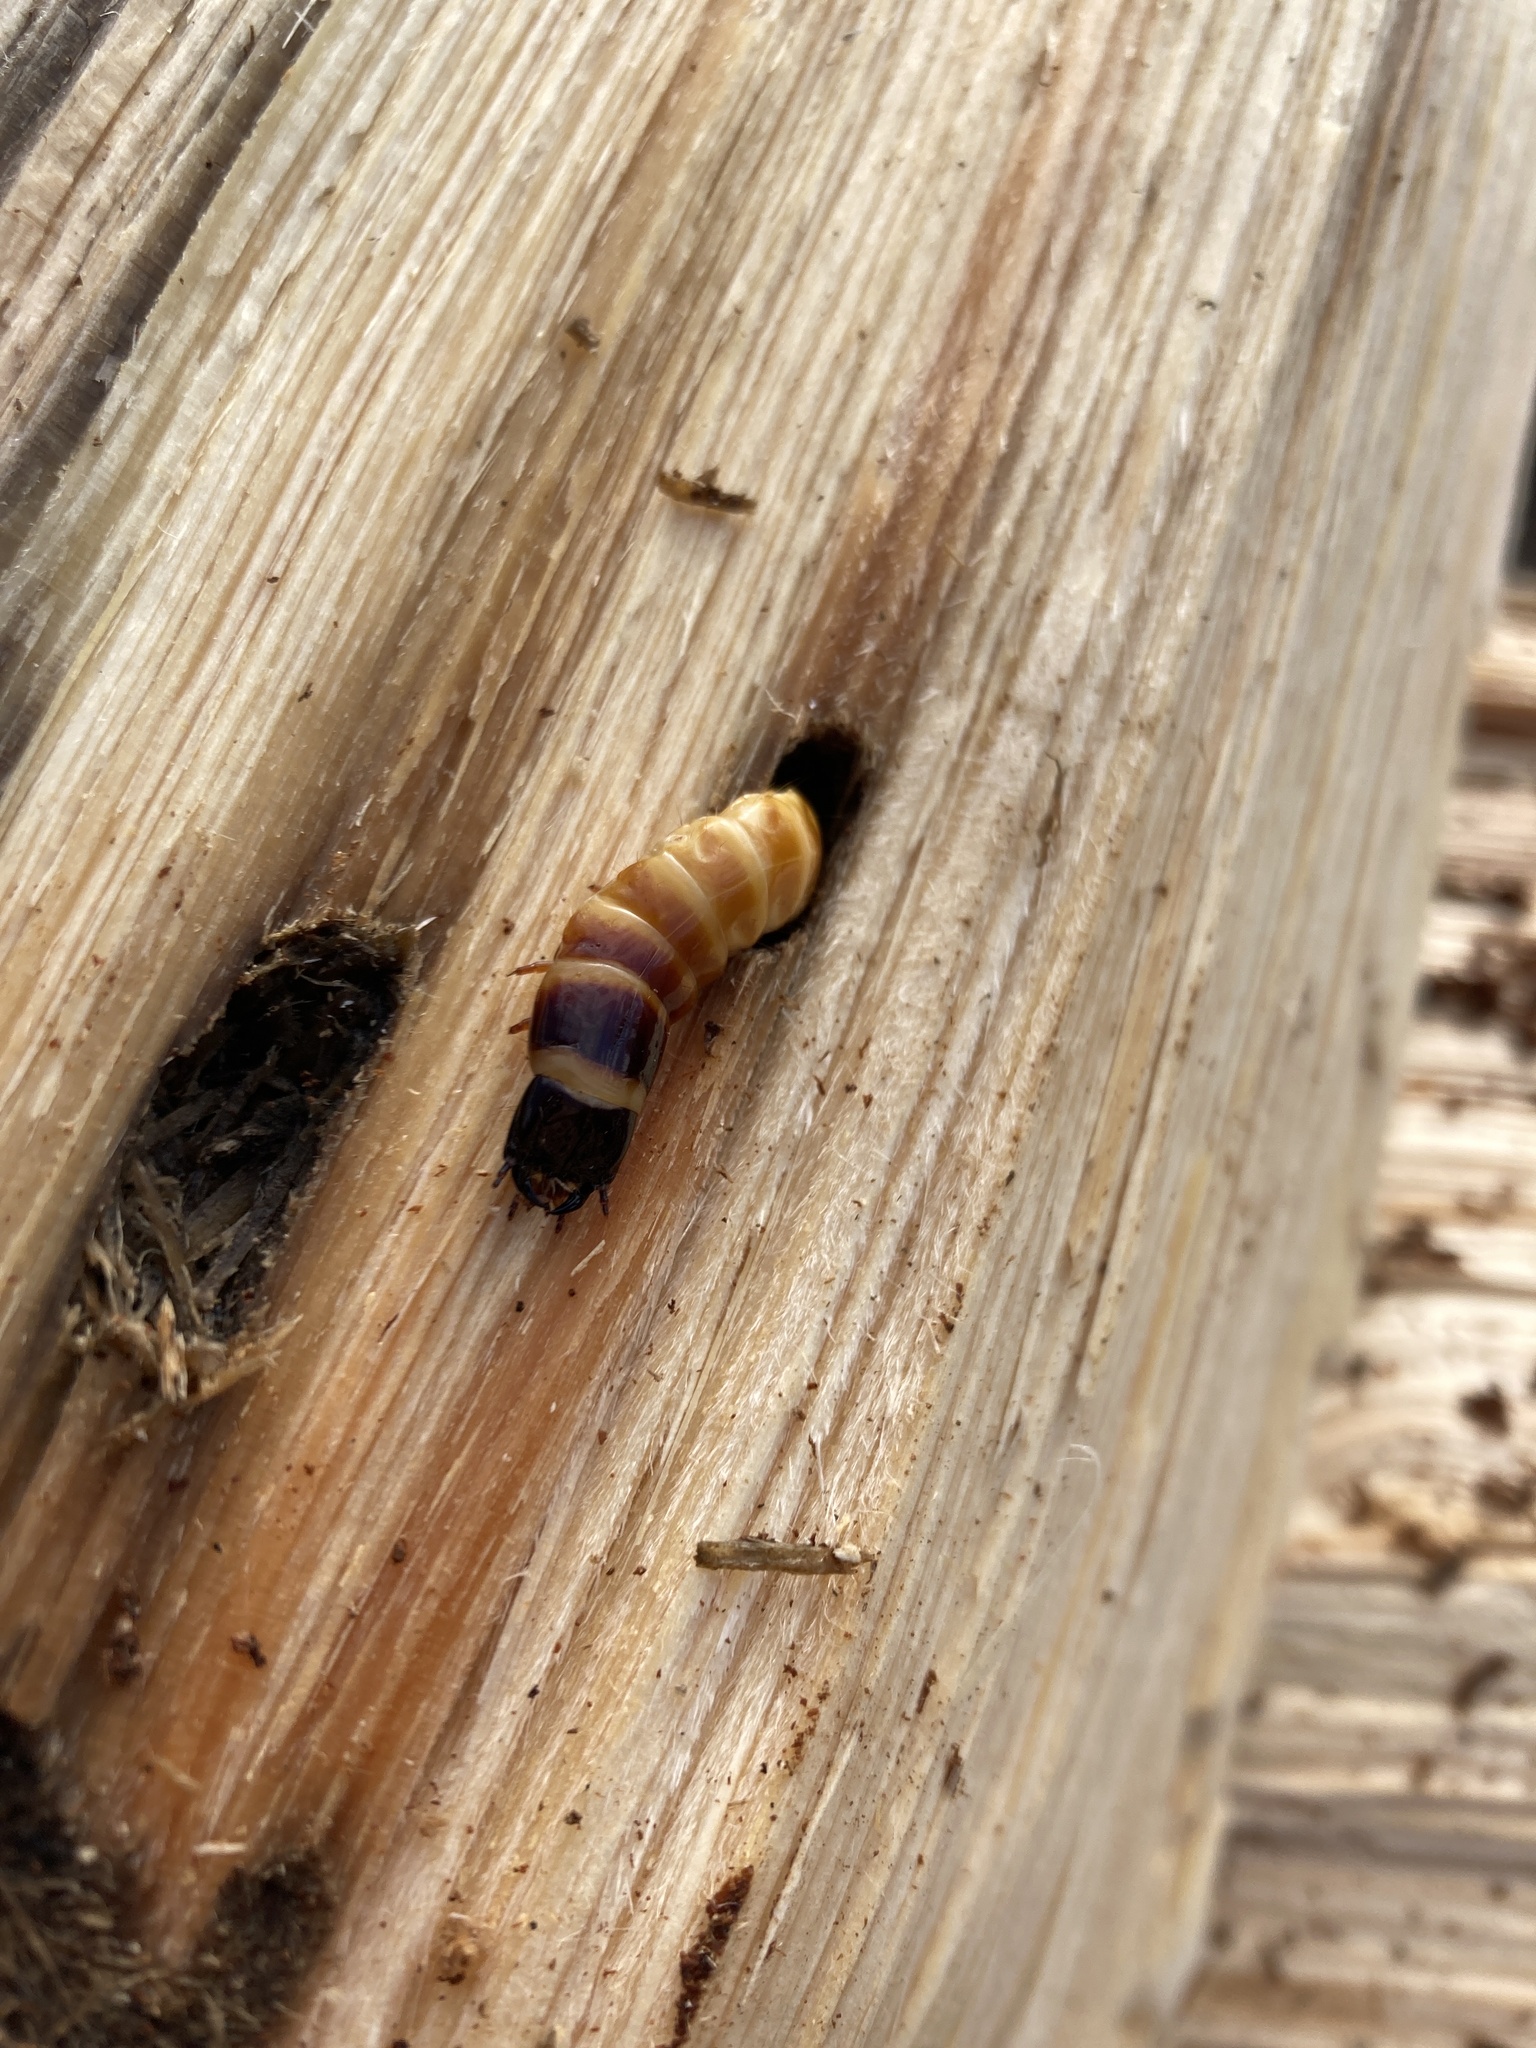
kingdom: Animalia
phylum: Arthropoda
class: Insecta
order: Coleoptera
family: Elateridae
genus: Alaus
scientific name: Alaus oculatus
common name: Eastern eyed click beetle
